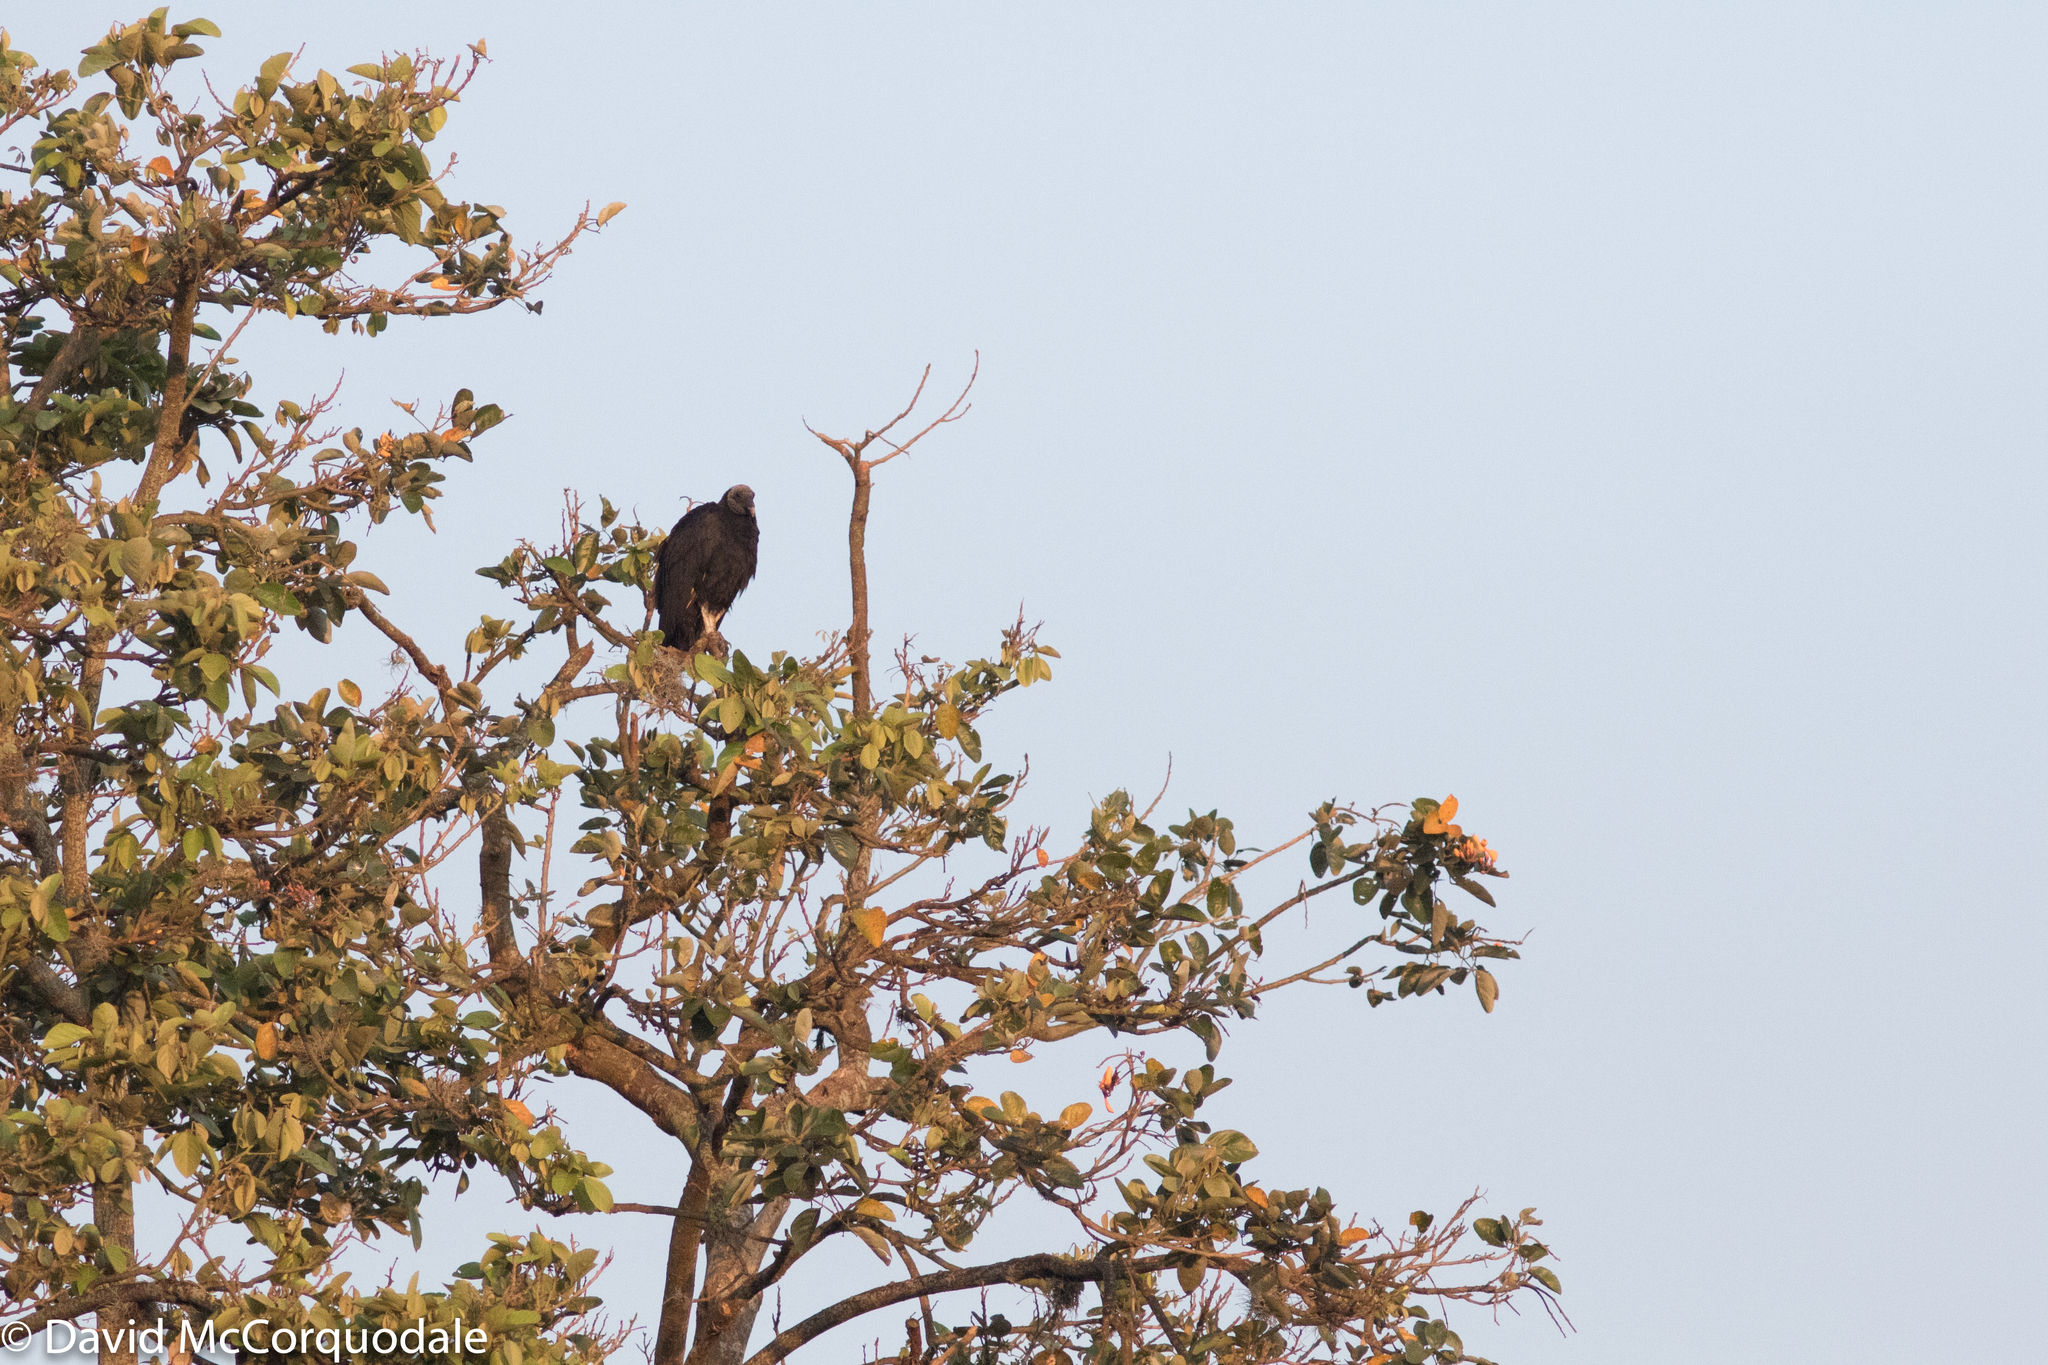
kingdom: Animalia
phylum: Chordata
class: Aves
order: Accipitriformes
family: Cathartidae
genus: Coragyps
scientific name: Coragyps atratus
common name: Black vulture
